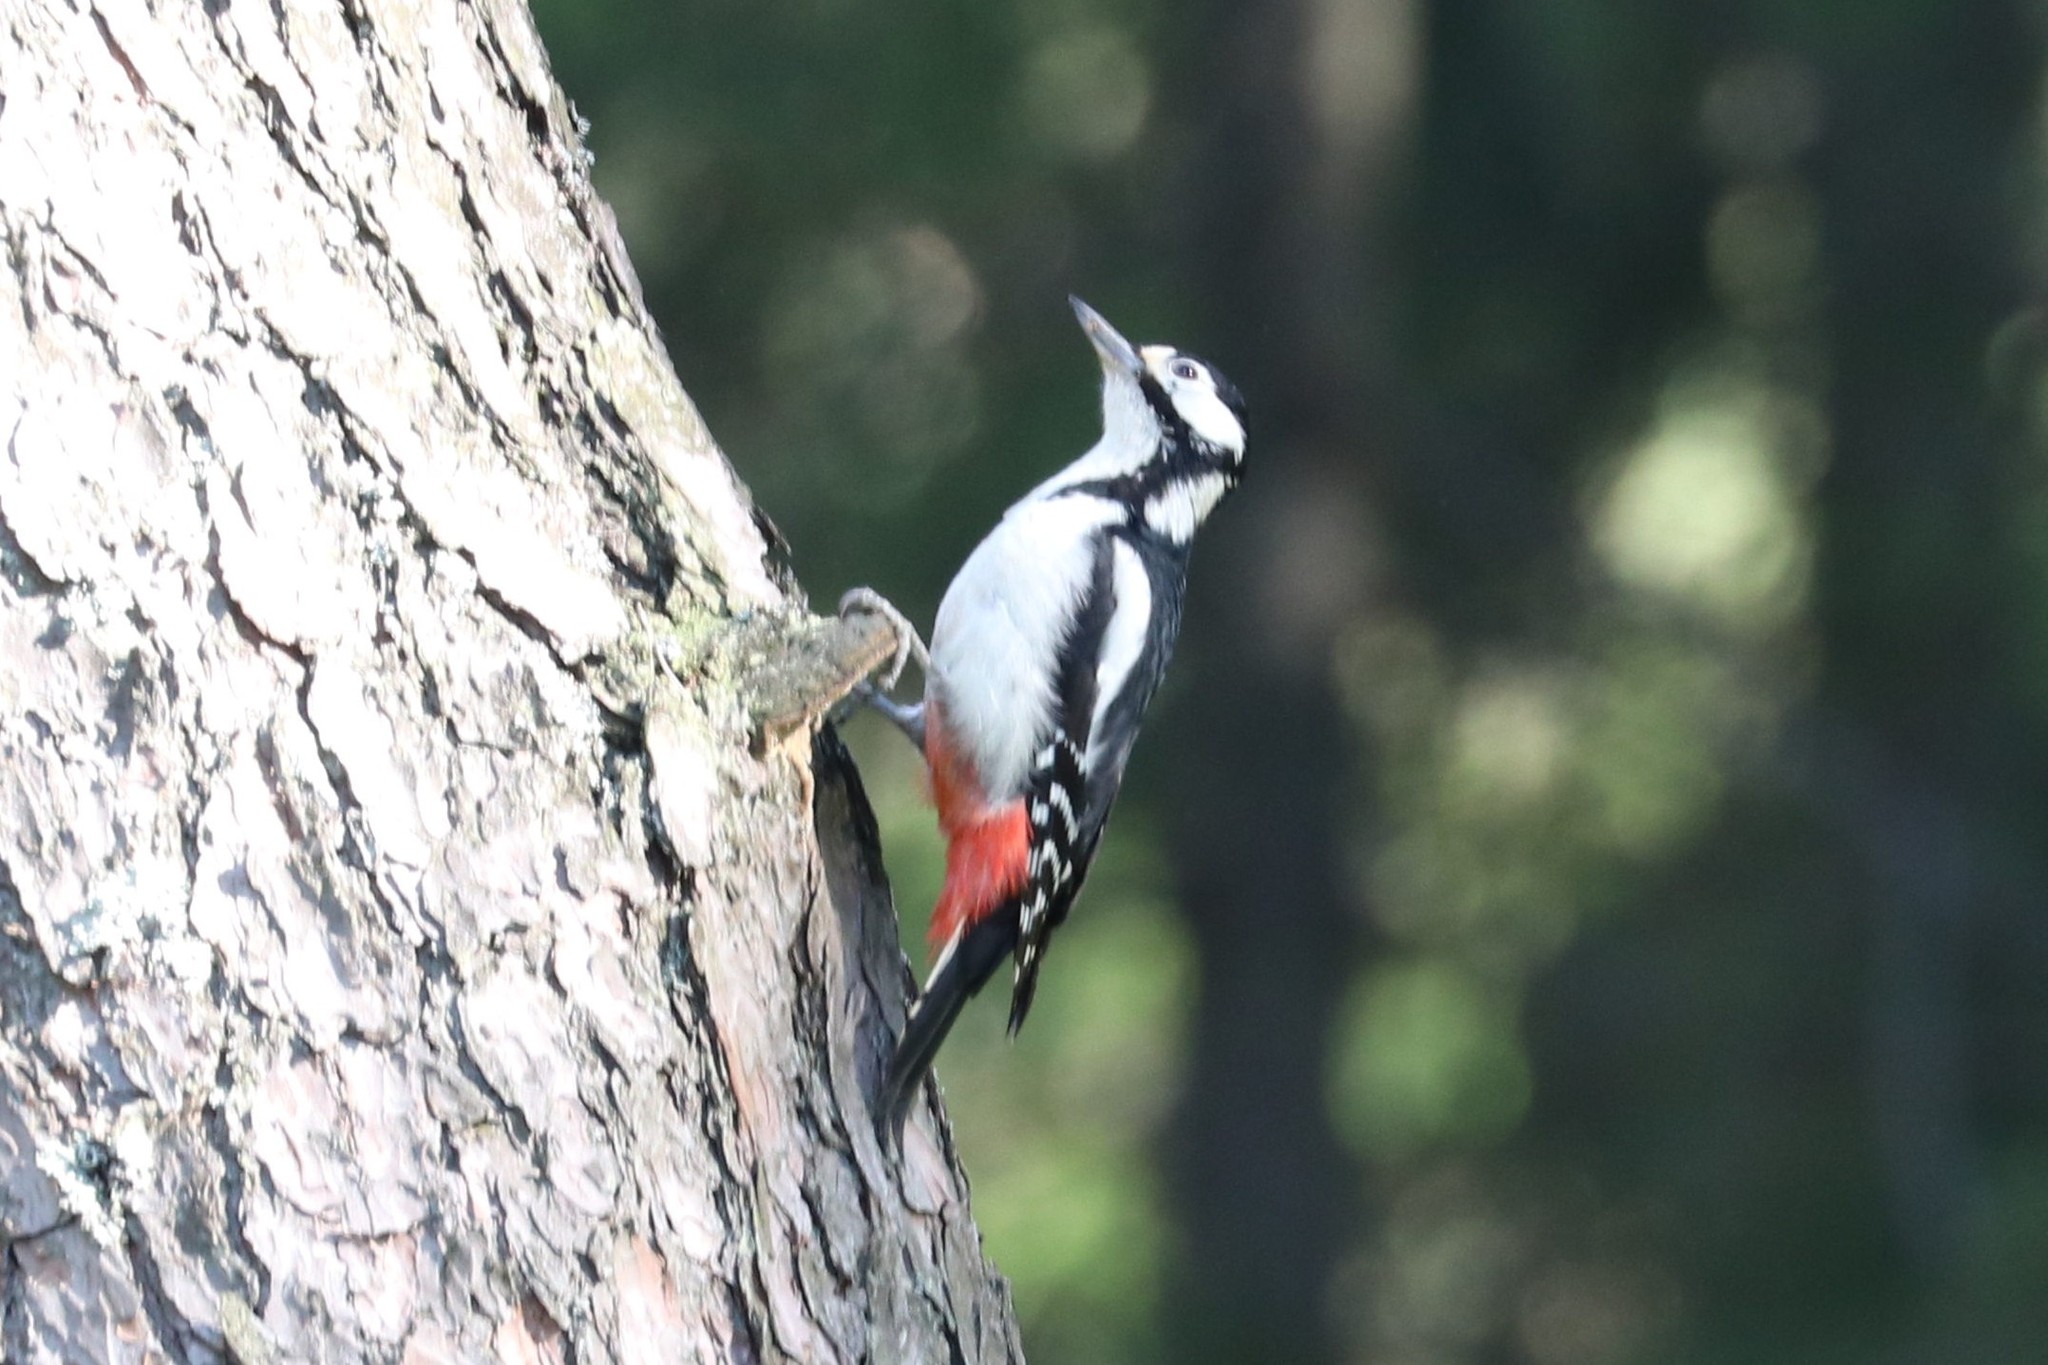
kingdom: Animalia
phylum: Chordata
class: Aves
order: Piciformes
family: Picidae
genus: Dendrocopos
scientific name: Dendrocopos major
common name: Great spotted woodpecker
